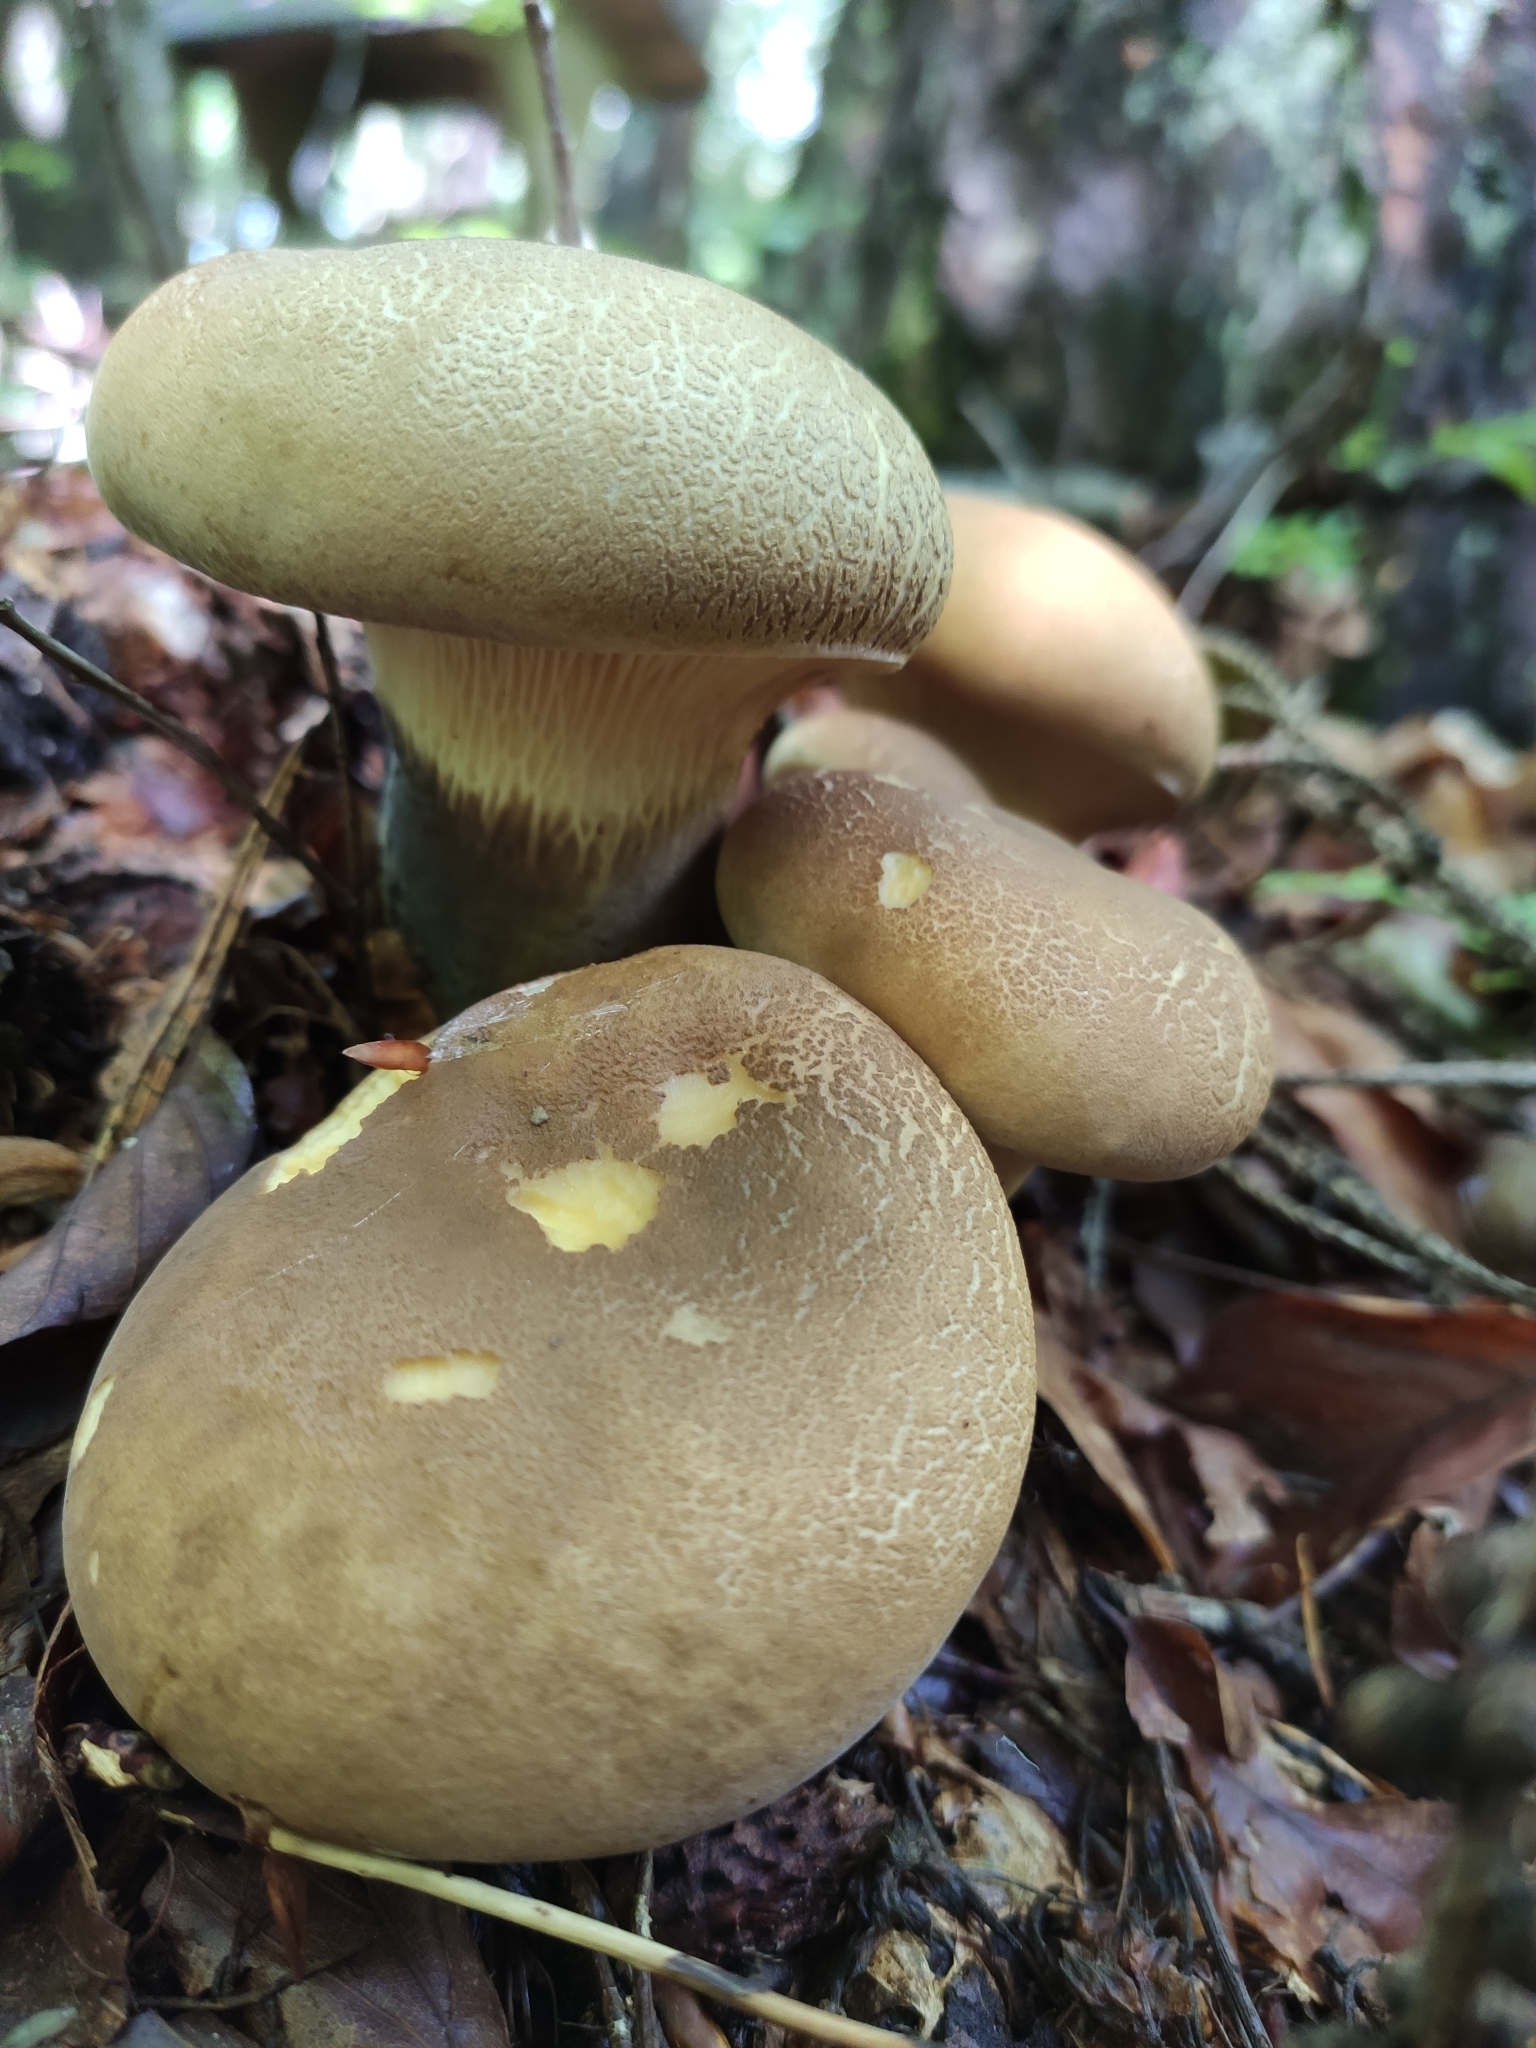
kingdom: Fungi
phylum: Basidiomycota
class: Agaricomycetes
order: Boletales
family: Tapinellaceae
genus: Tapinella
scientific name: Tapinella atrotomentosa
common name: Velvet rollrim
